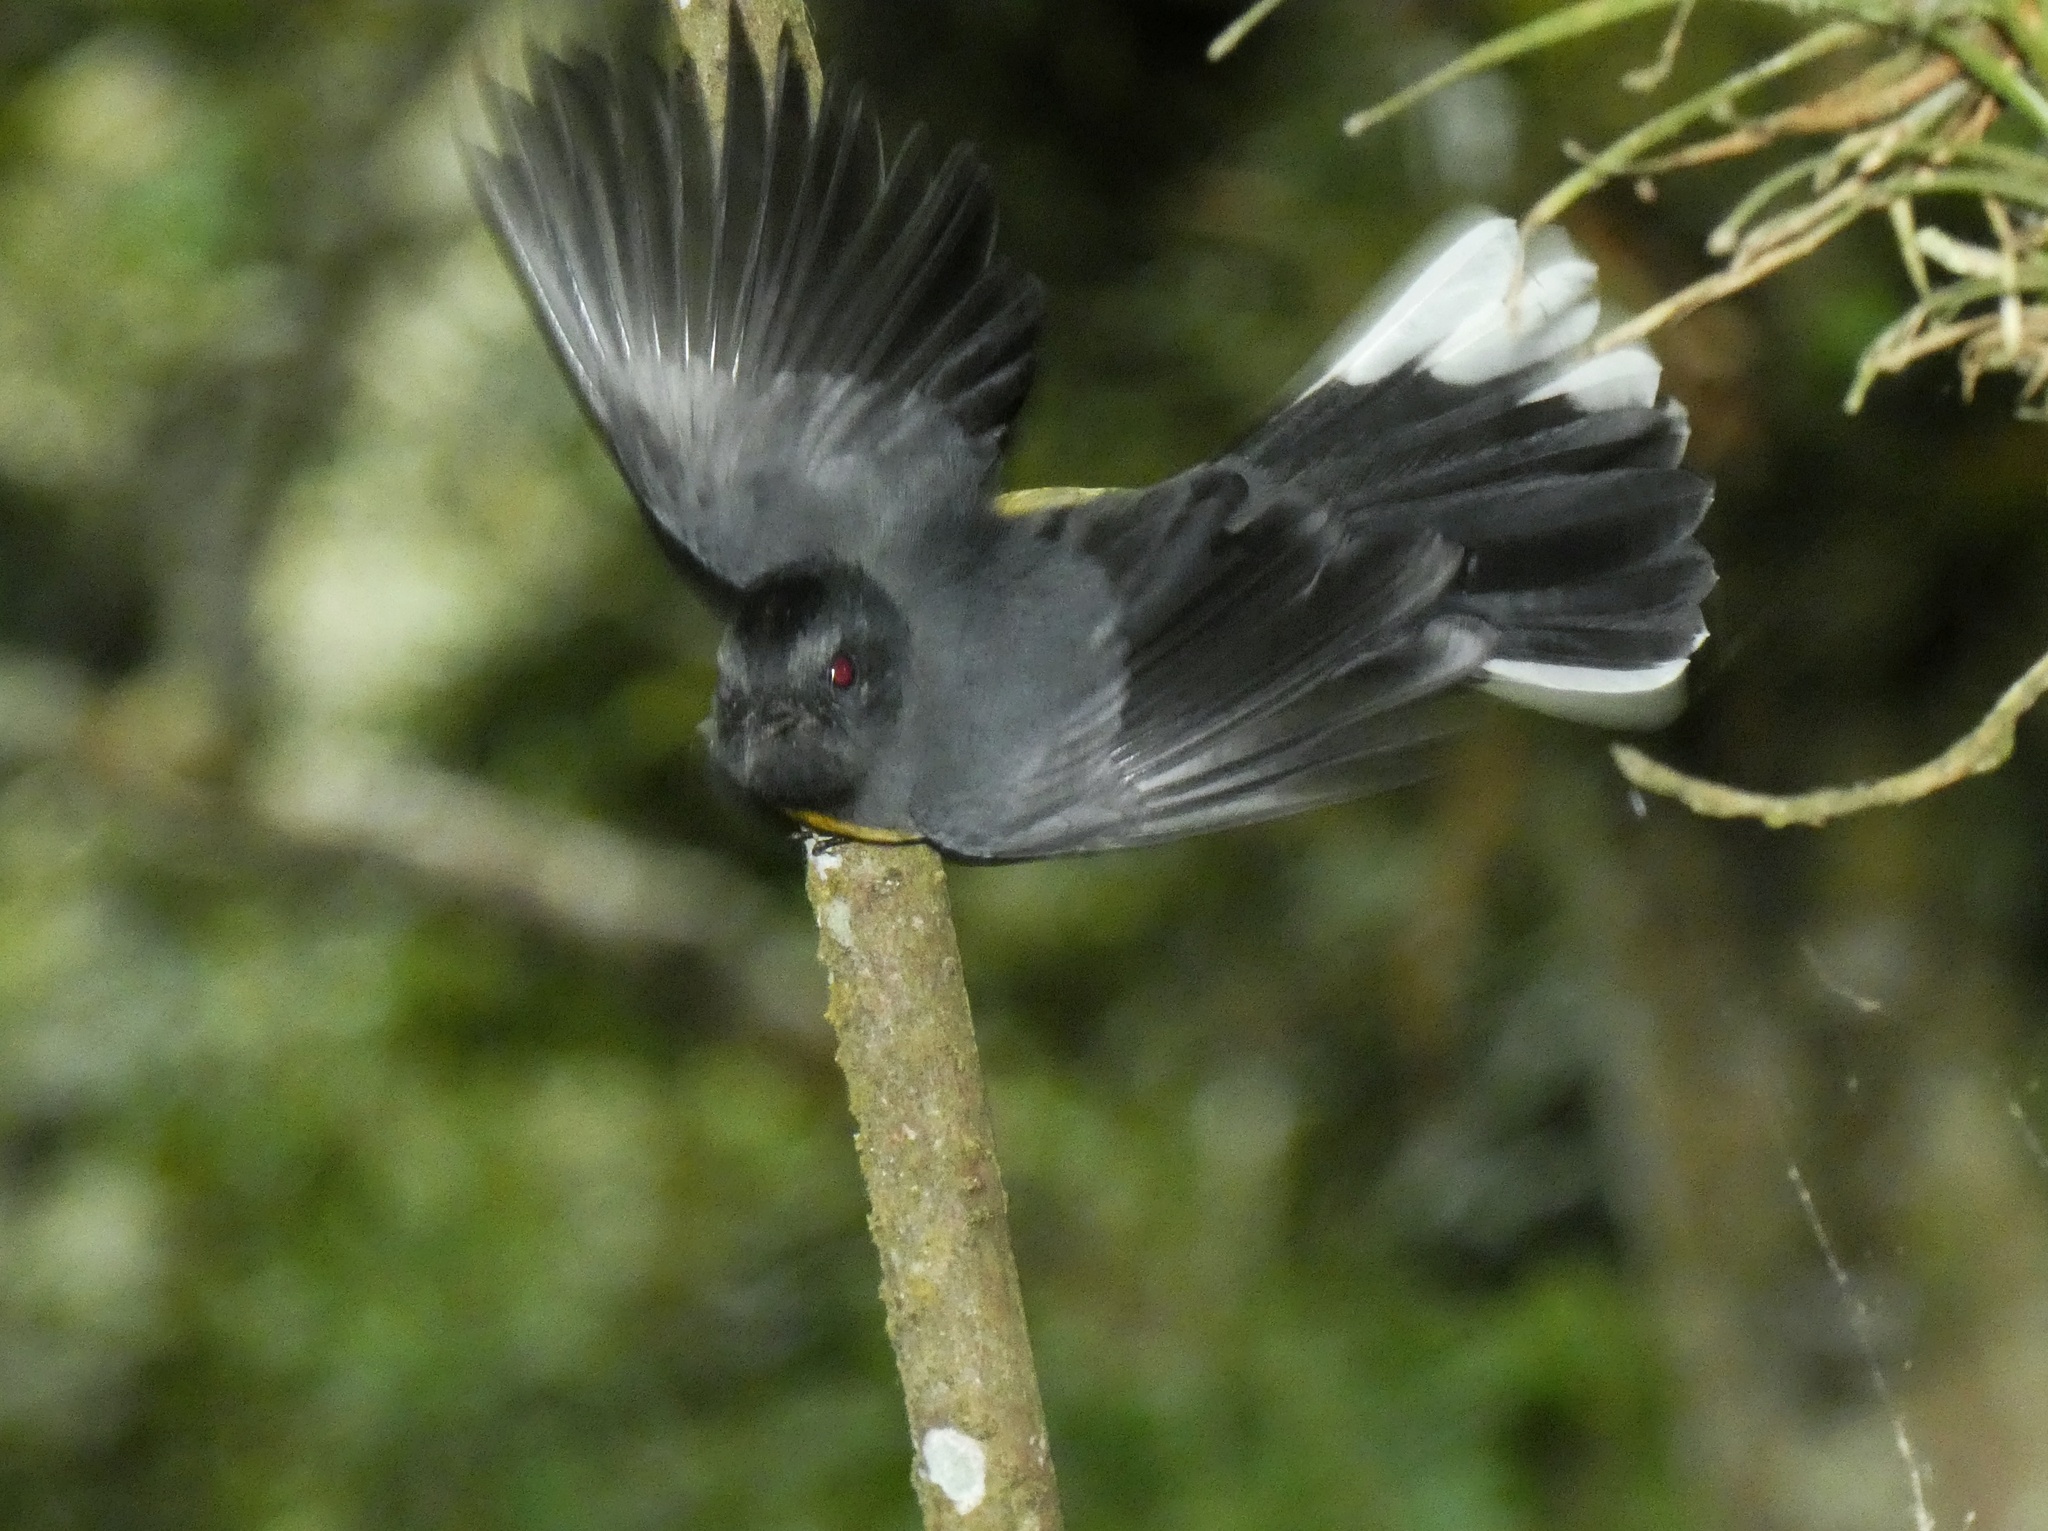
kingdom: Animalia
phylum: Chordata
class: Aves
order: Passeriformes
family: Parulidae
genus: Myioborus
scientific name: Myioborus miniatus
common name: Slate-throated redstart
